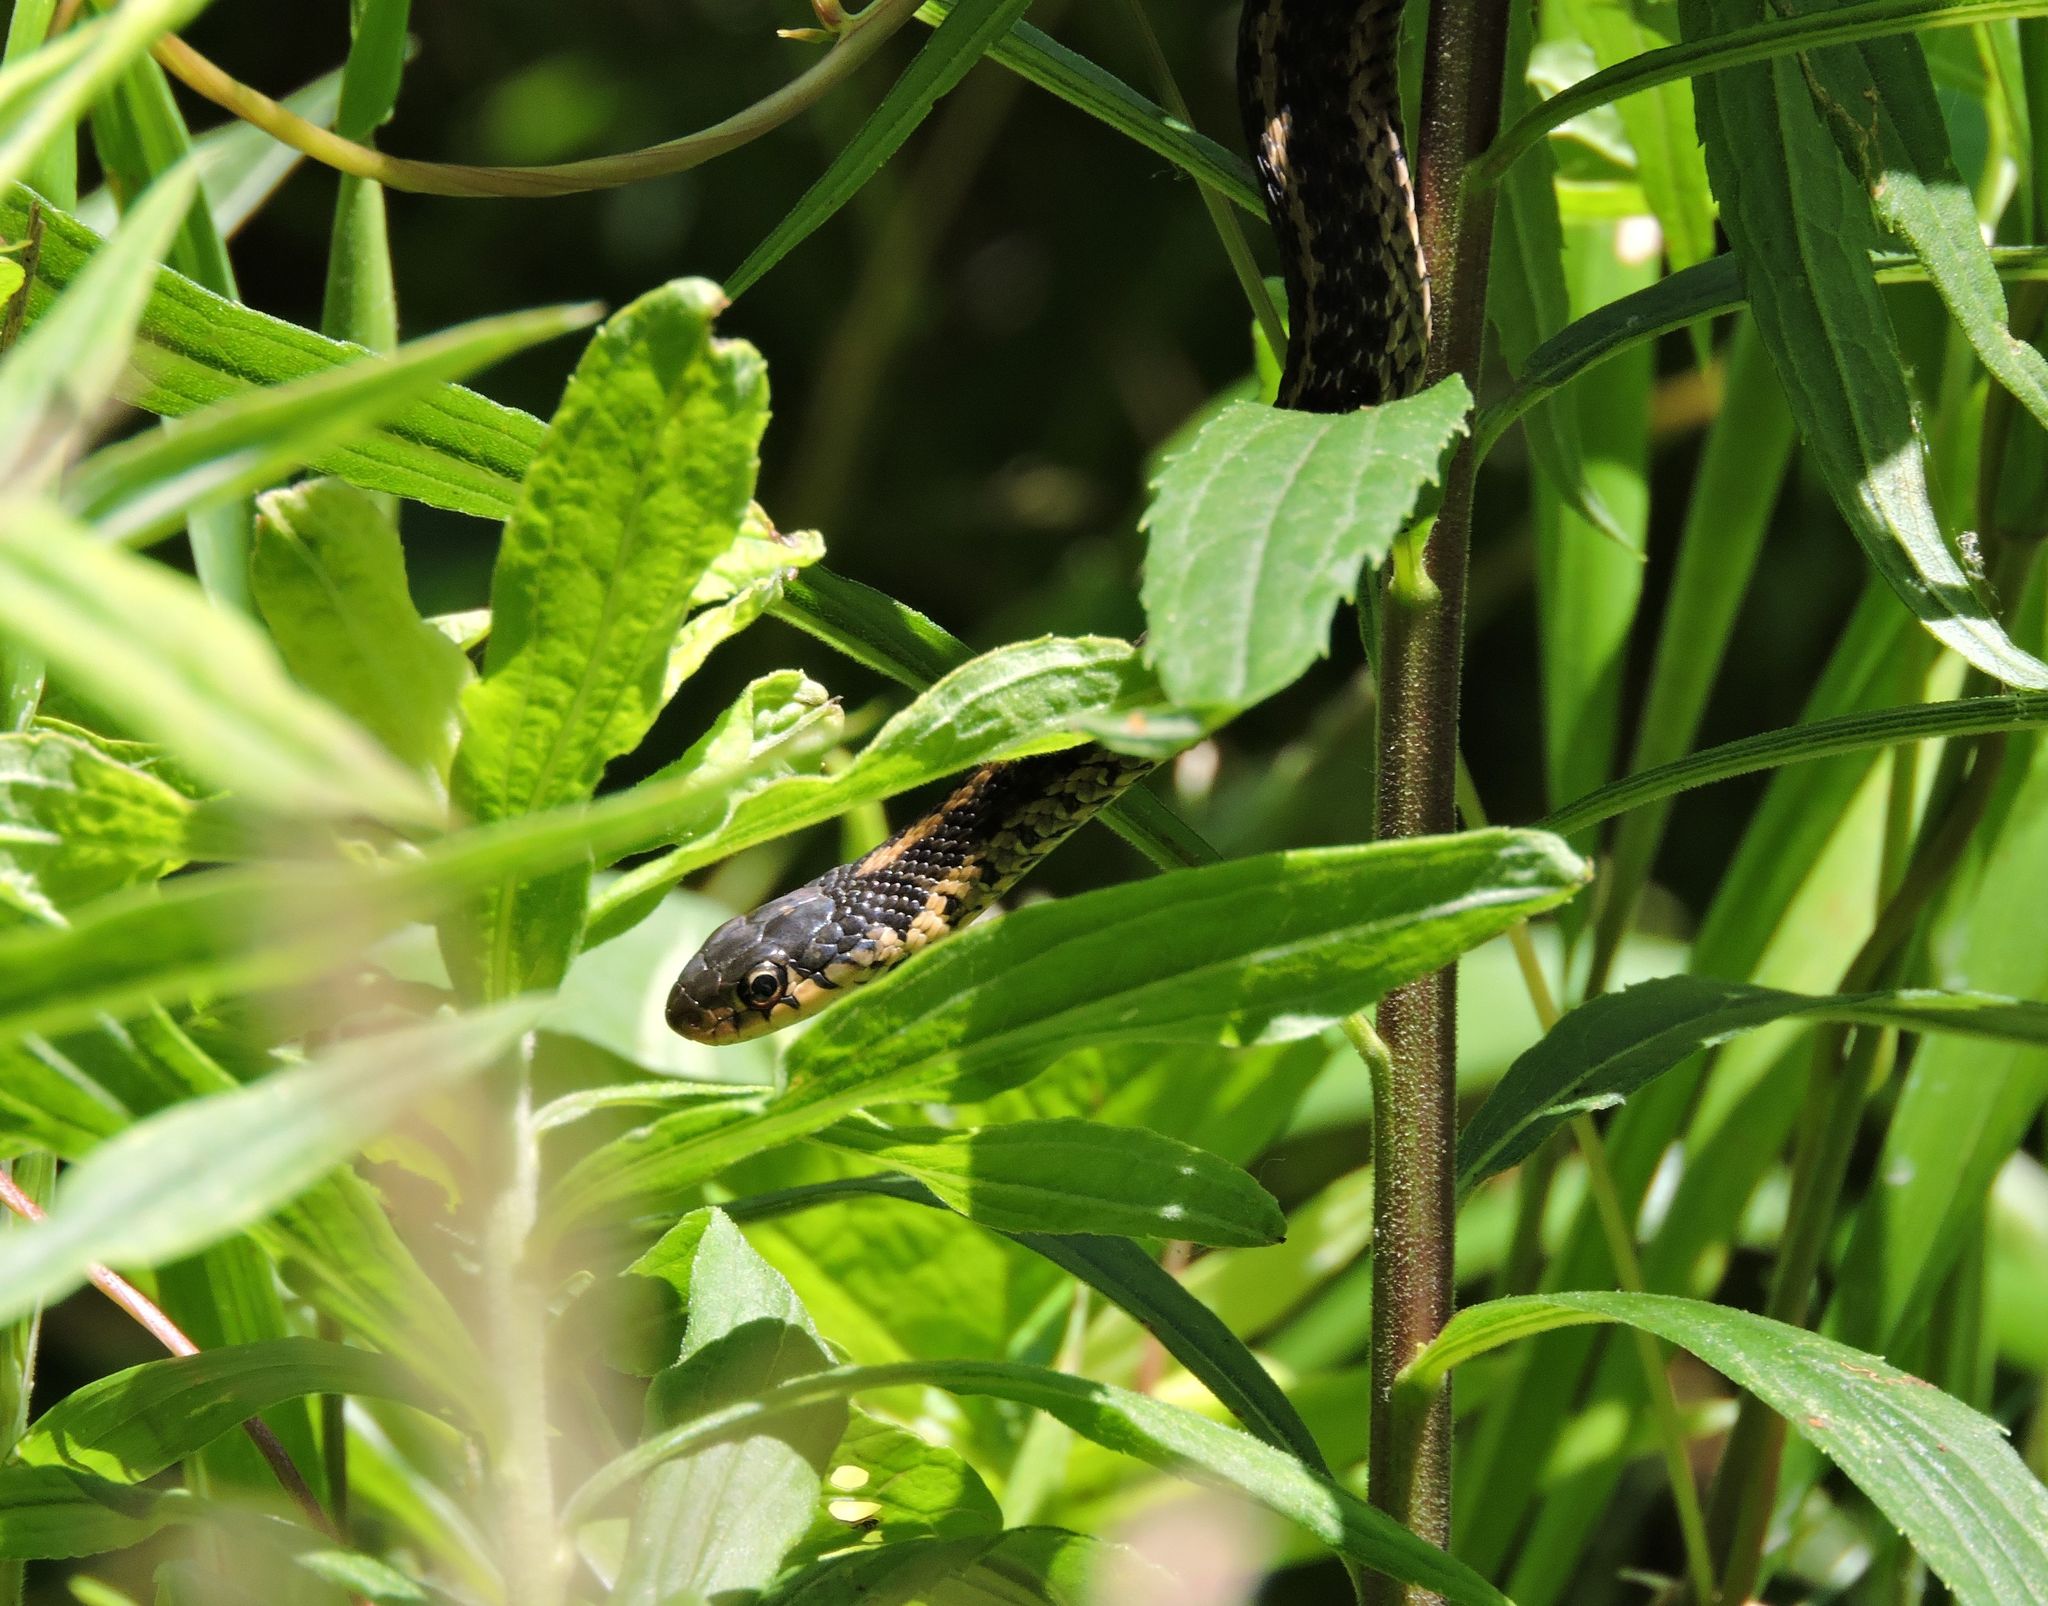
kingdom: Animalia
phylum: Chordata
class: Squamata
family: Colubridae
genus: Thamnophis
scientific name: Thamnophis sirtalis
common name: Common garter snake
